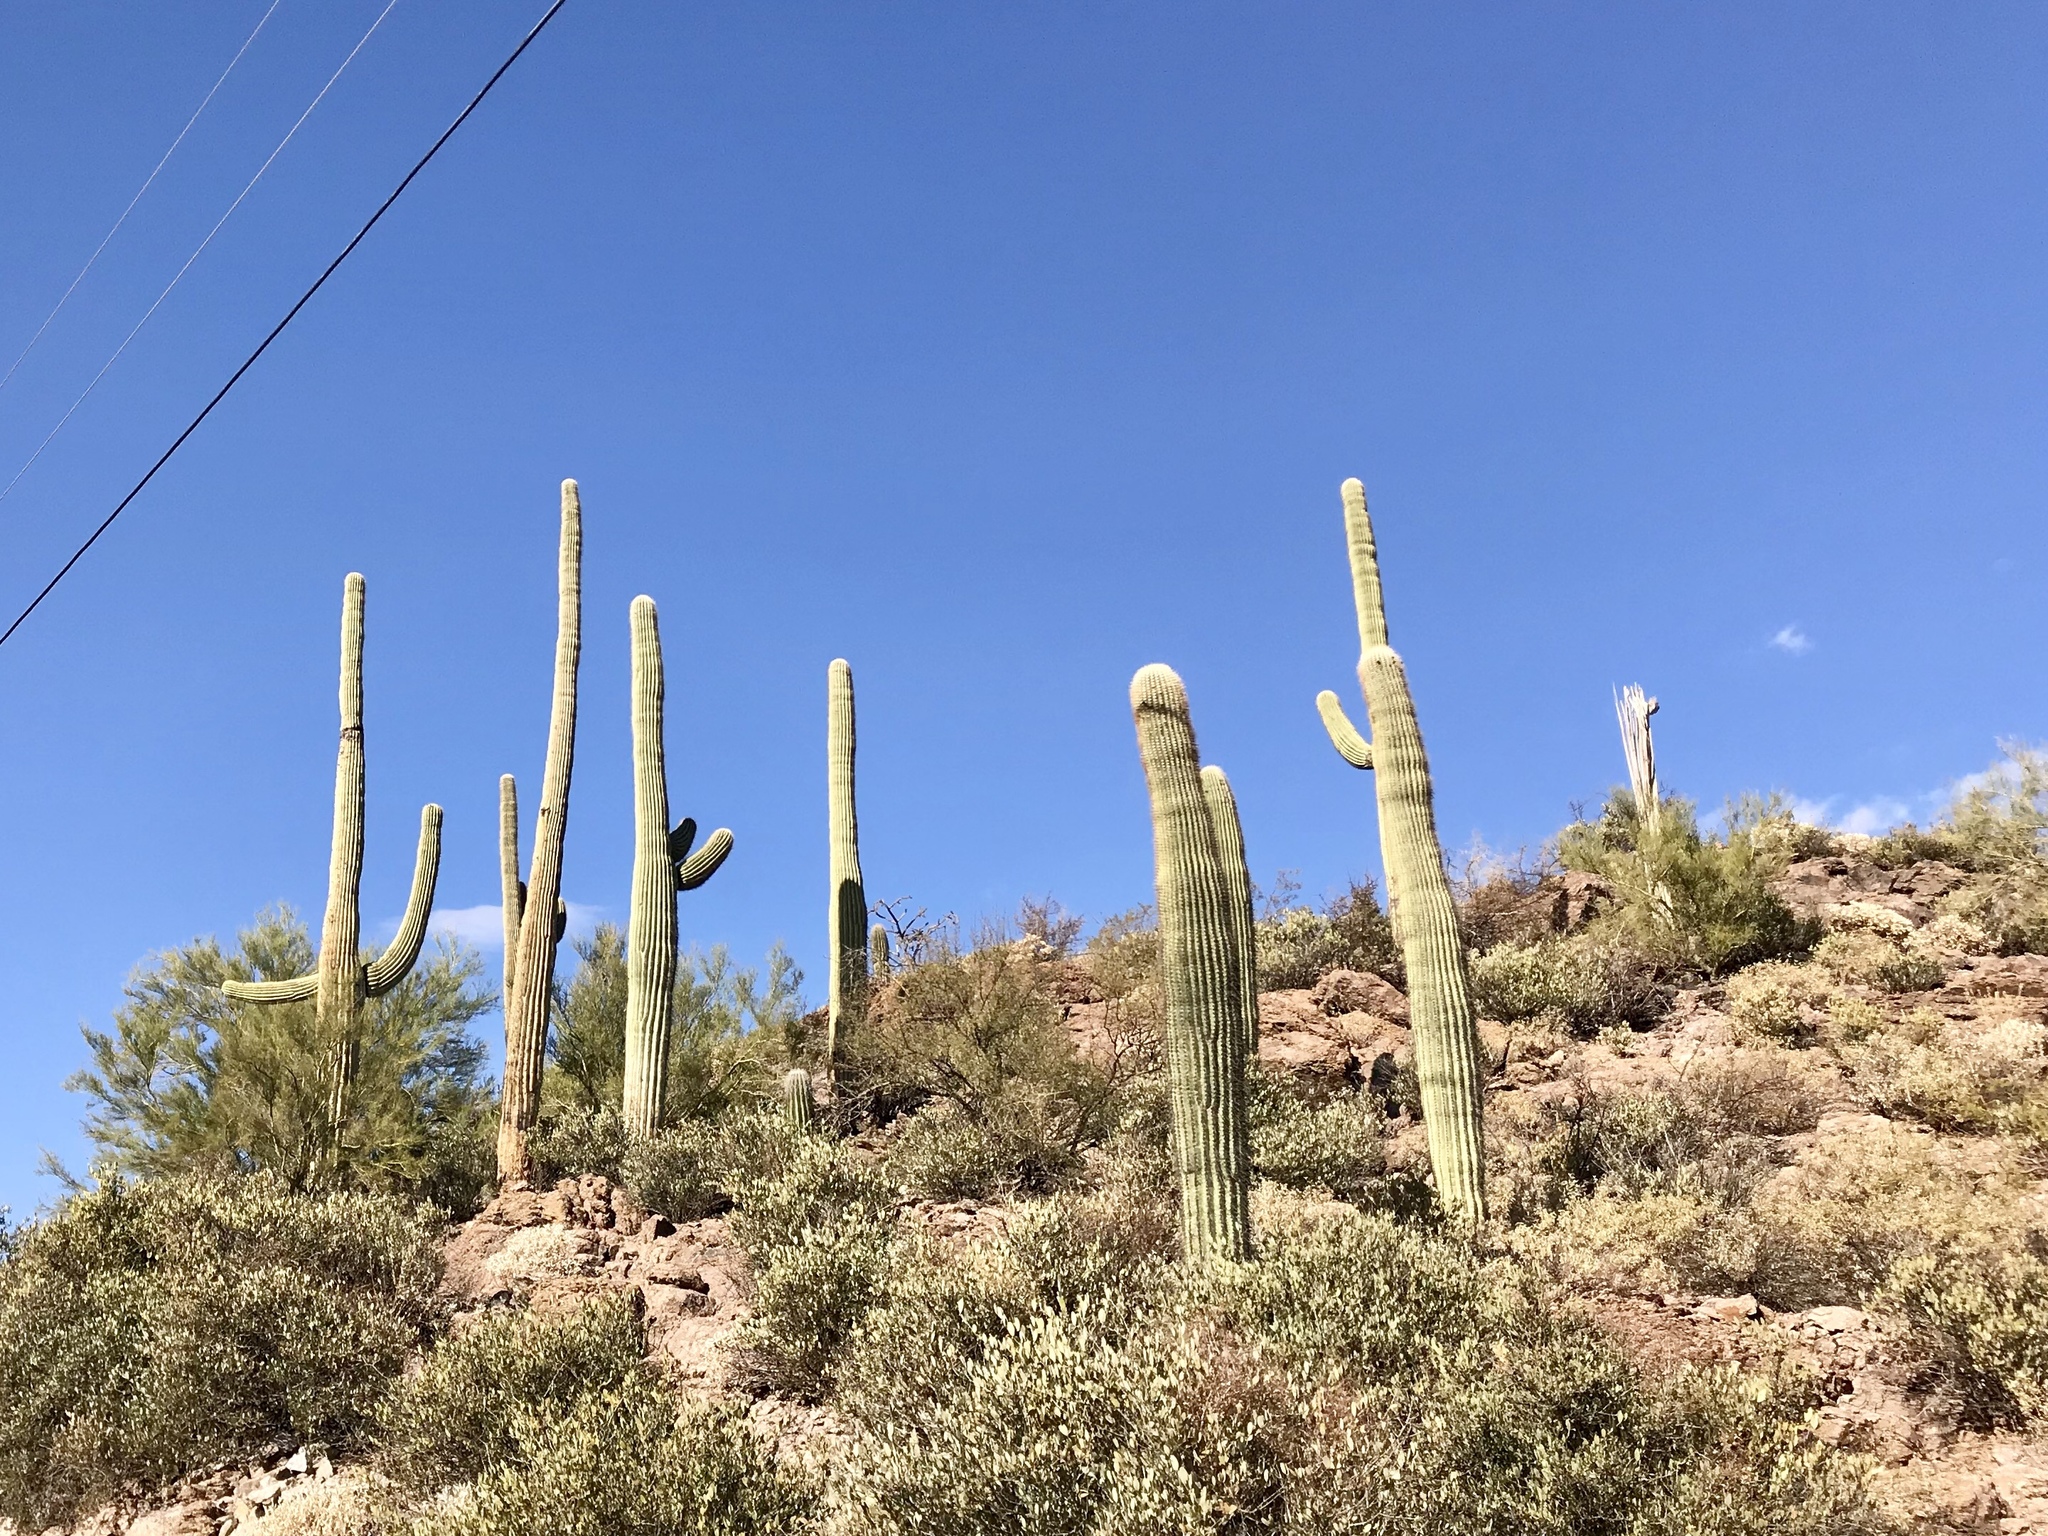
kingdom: Plantae
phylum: Tracheophyta
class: Magnoliopsida
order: Caryophyllales
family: Cactaceae
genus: Carnegiea
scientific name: Carnegiea gigantea
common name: Saguaro
